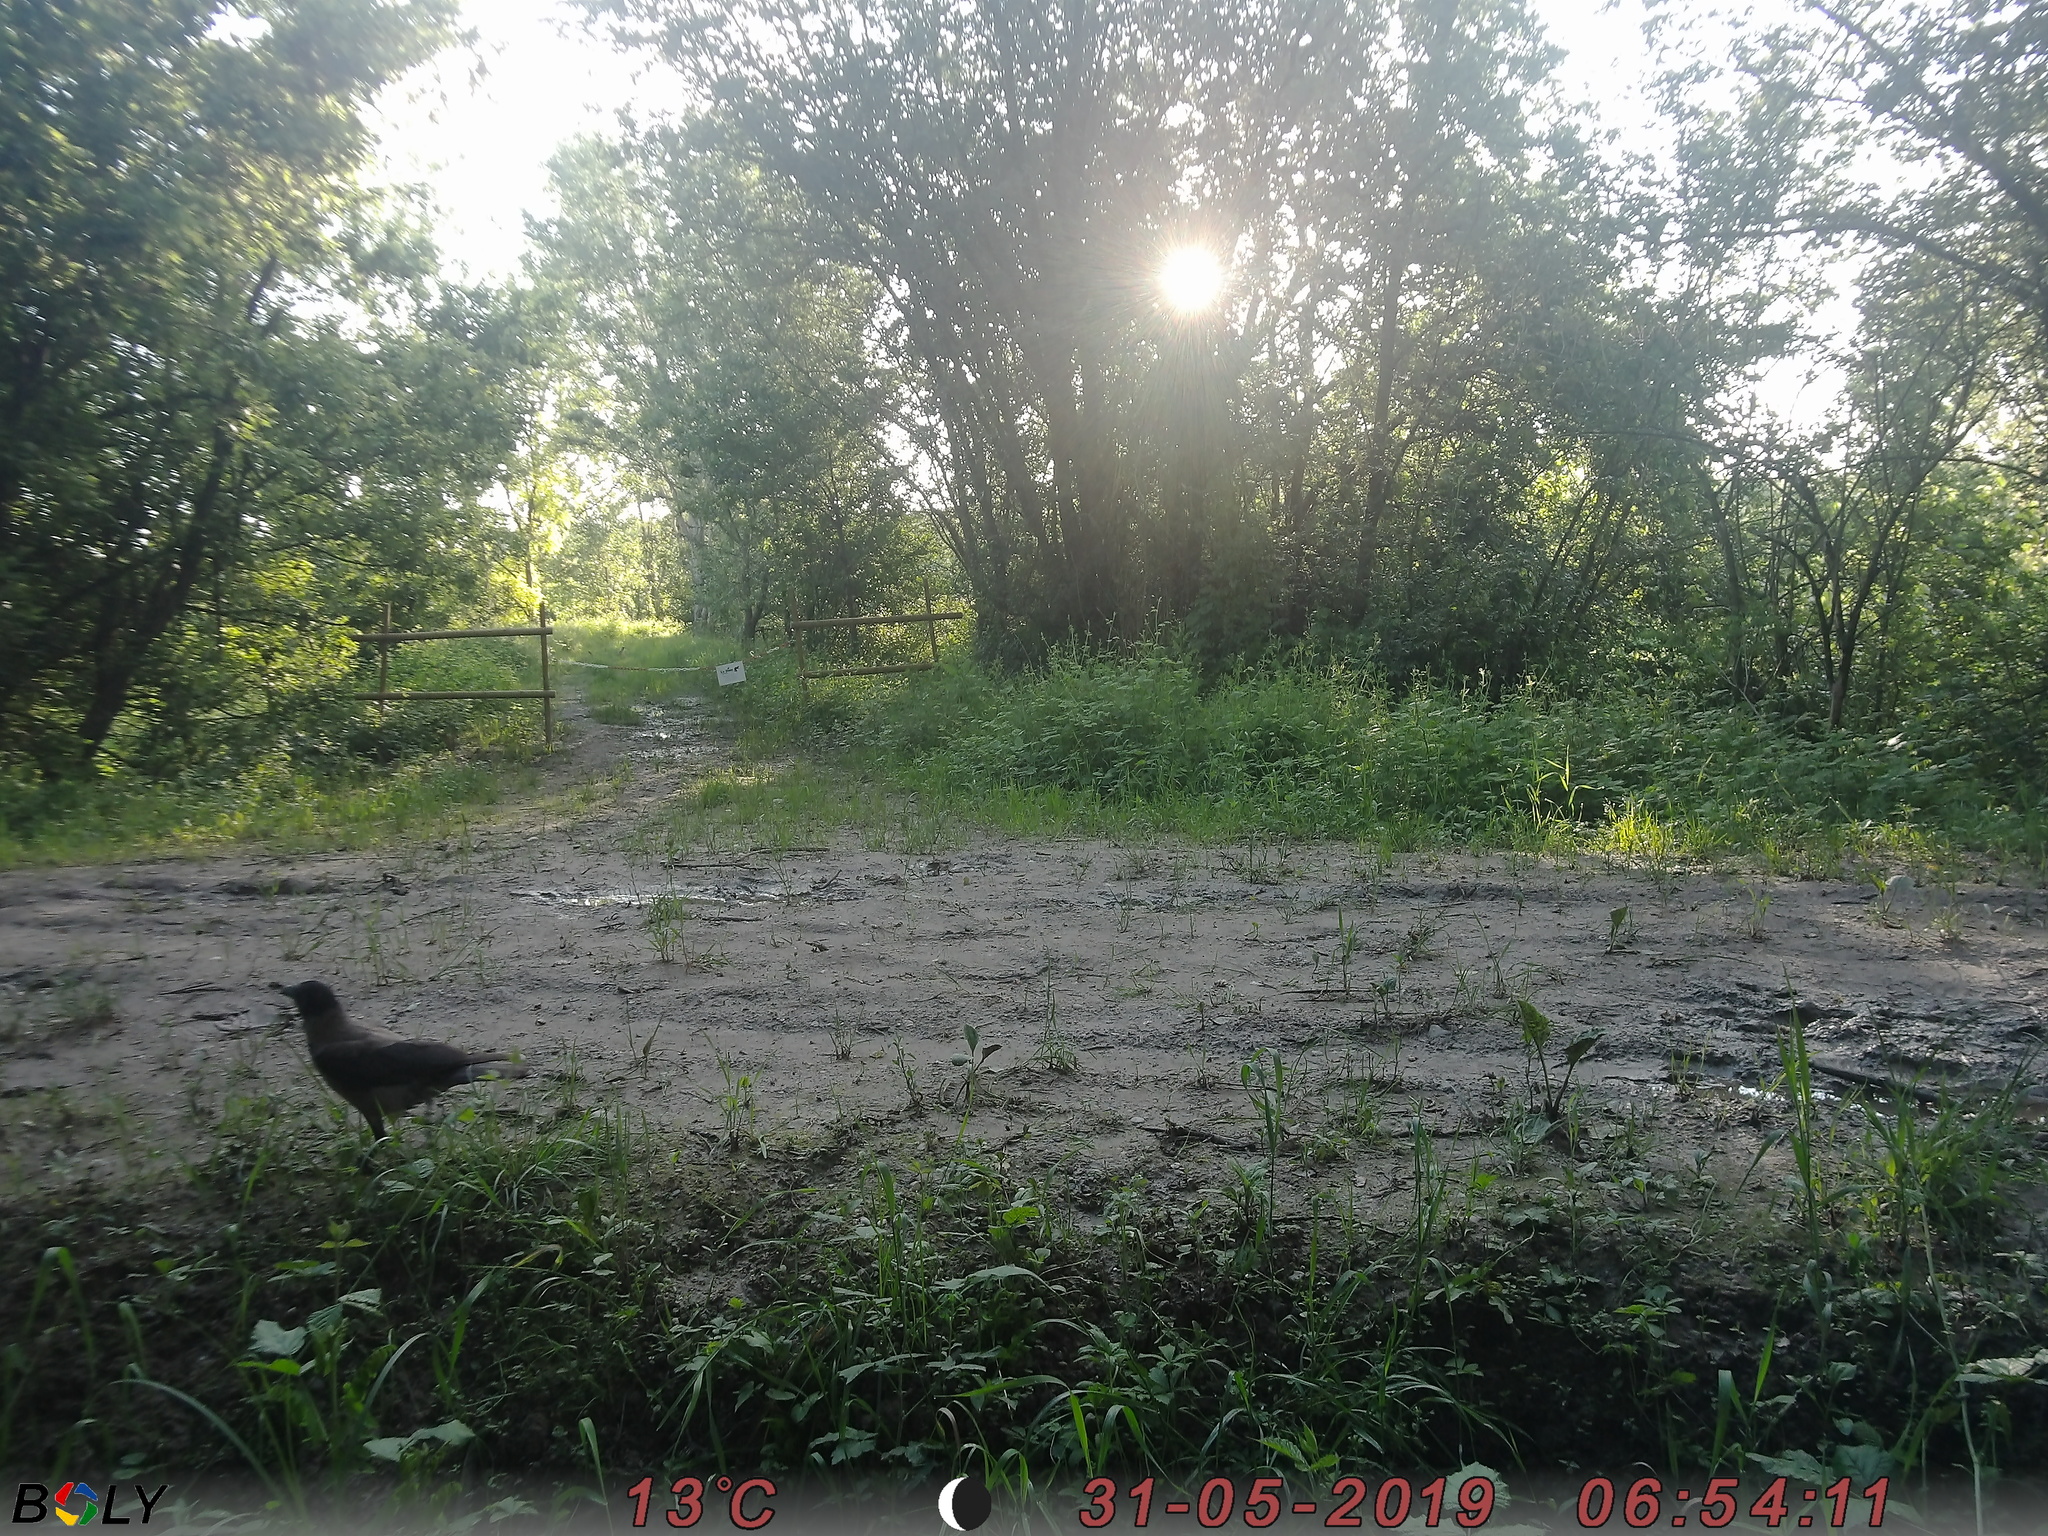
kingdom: Animalia
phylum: Chordata
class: Aves
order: Passeriformes
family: Corvidae
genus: Corvus
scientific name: Corvus cornix
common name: Hooded crow
